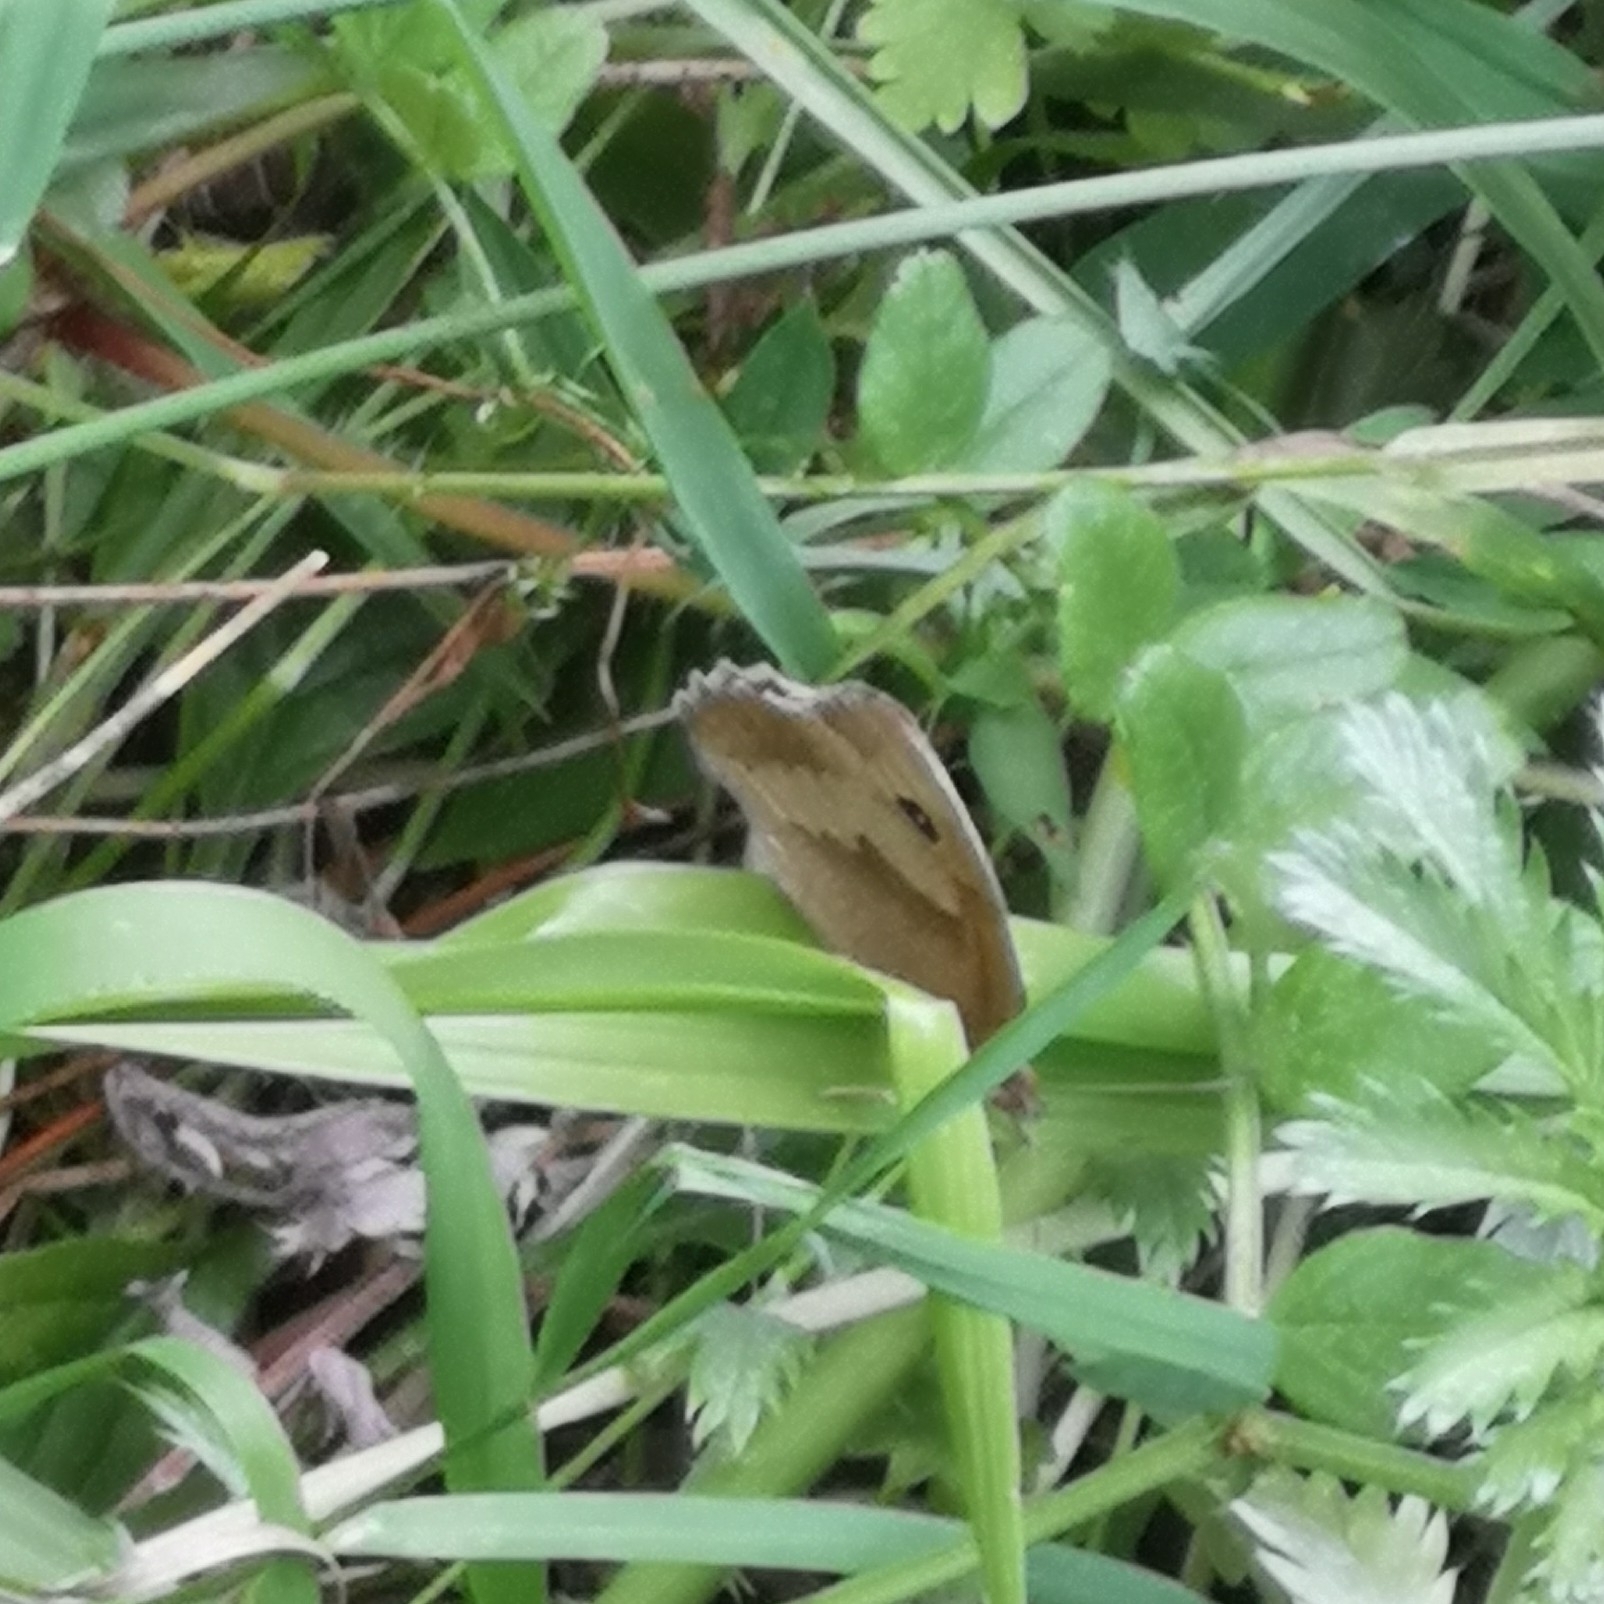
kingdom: Animalia
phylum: Arthropoda
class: Insecta
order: Lepidoptera
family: Nymphalidae
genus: Maniola
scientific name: Maniola jurtina
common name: Meadow brown
